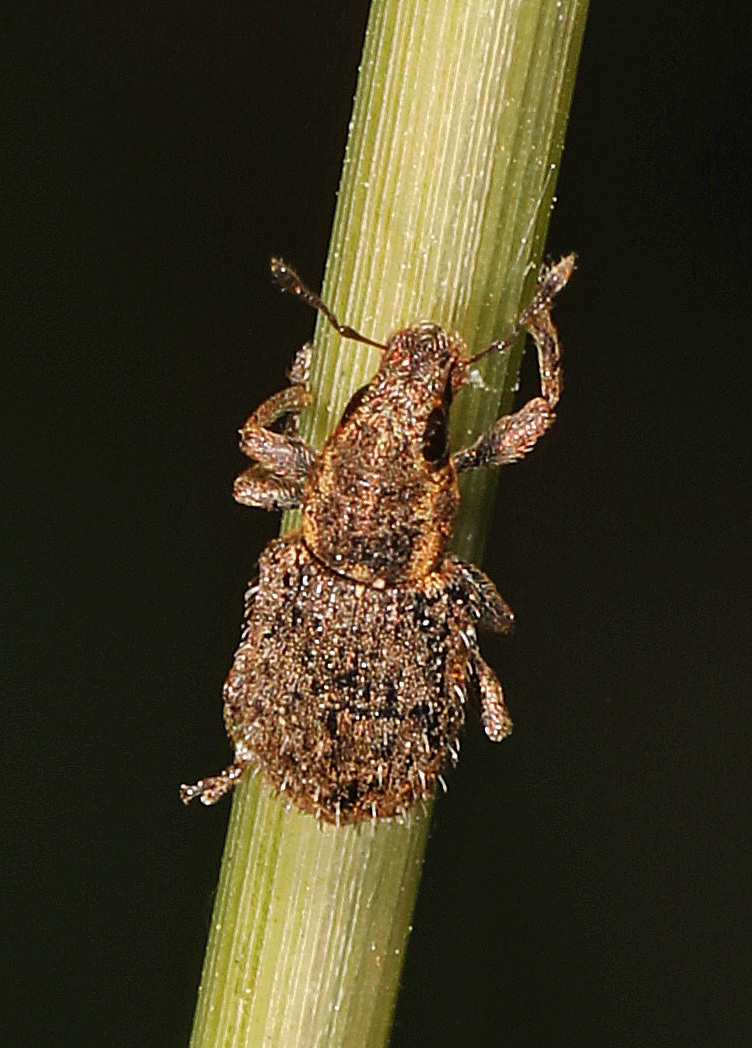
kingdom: Animalia
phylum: Arthropoda
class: Insecta
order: Coleoptera
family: Curculionidae
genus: Sitona
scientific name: Sitona hispidulus
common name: Clover weevil
